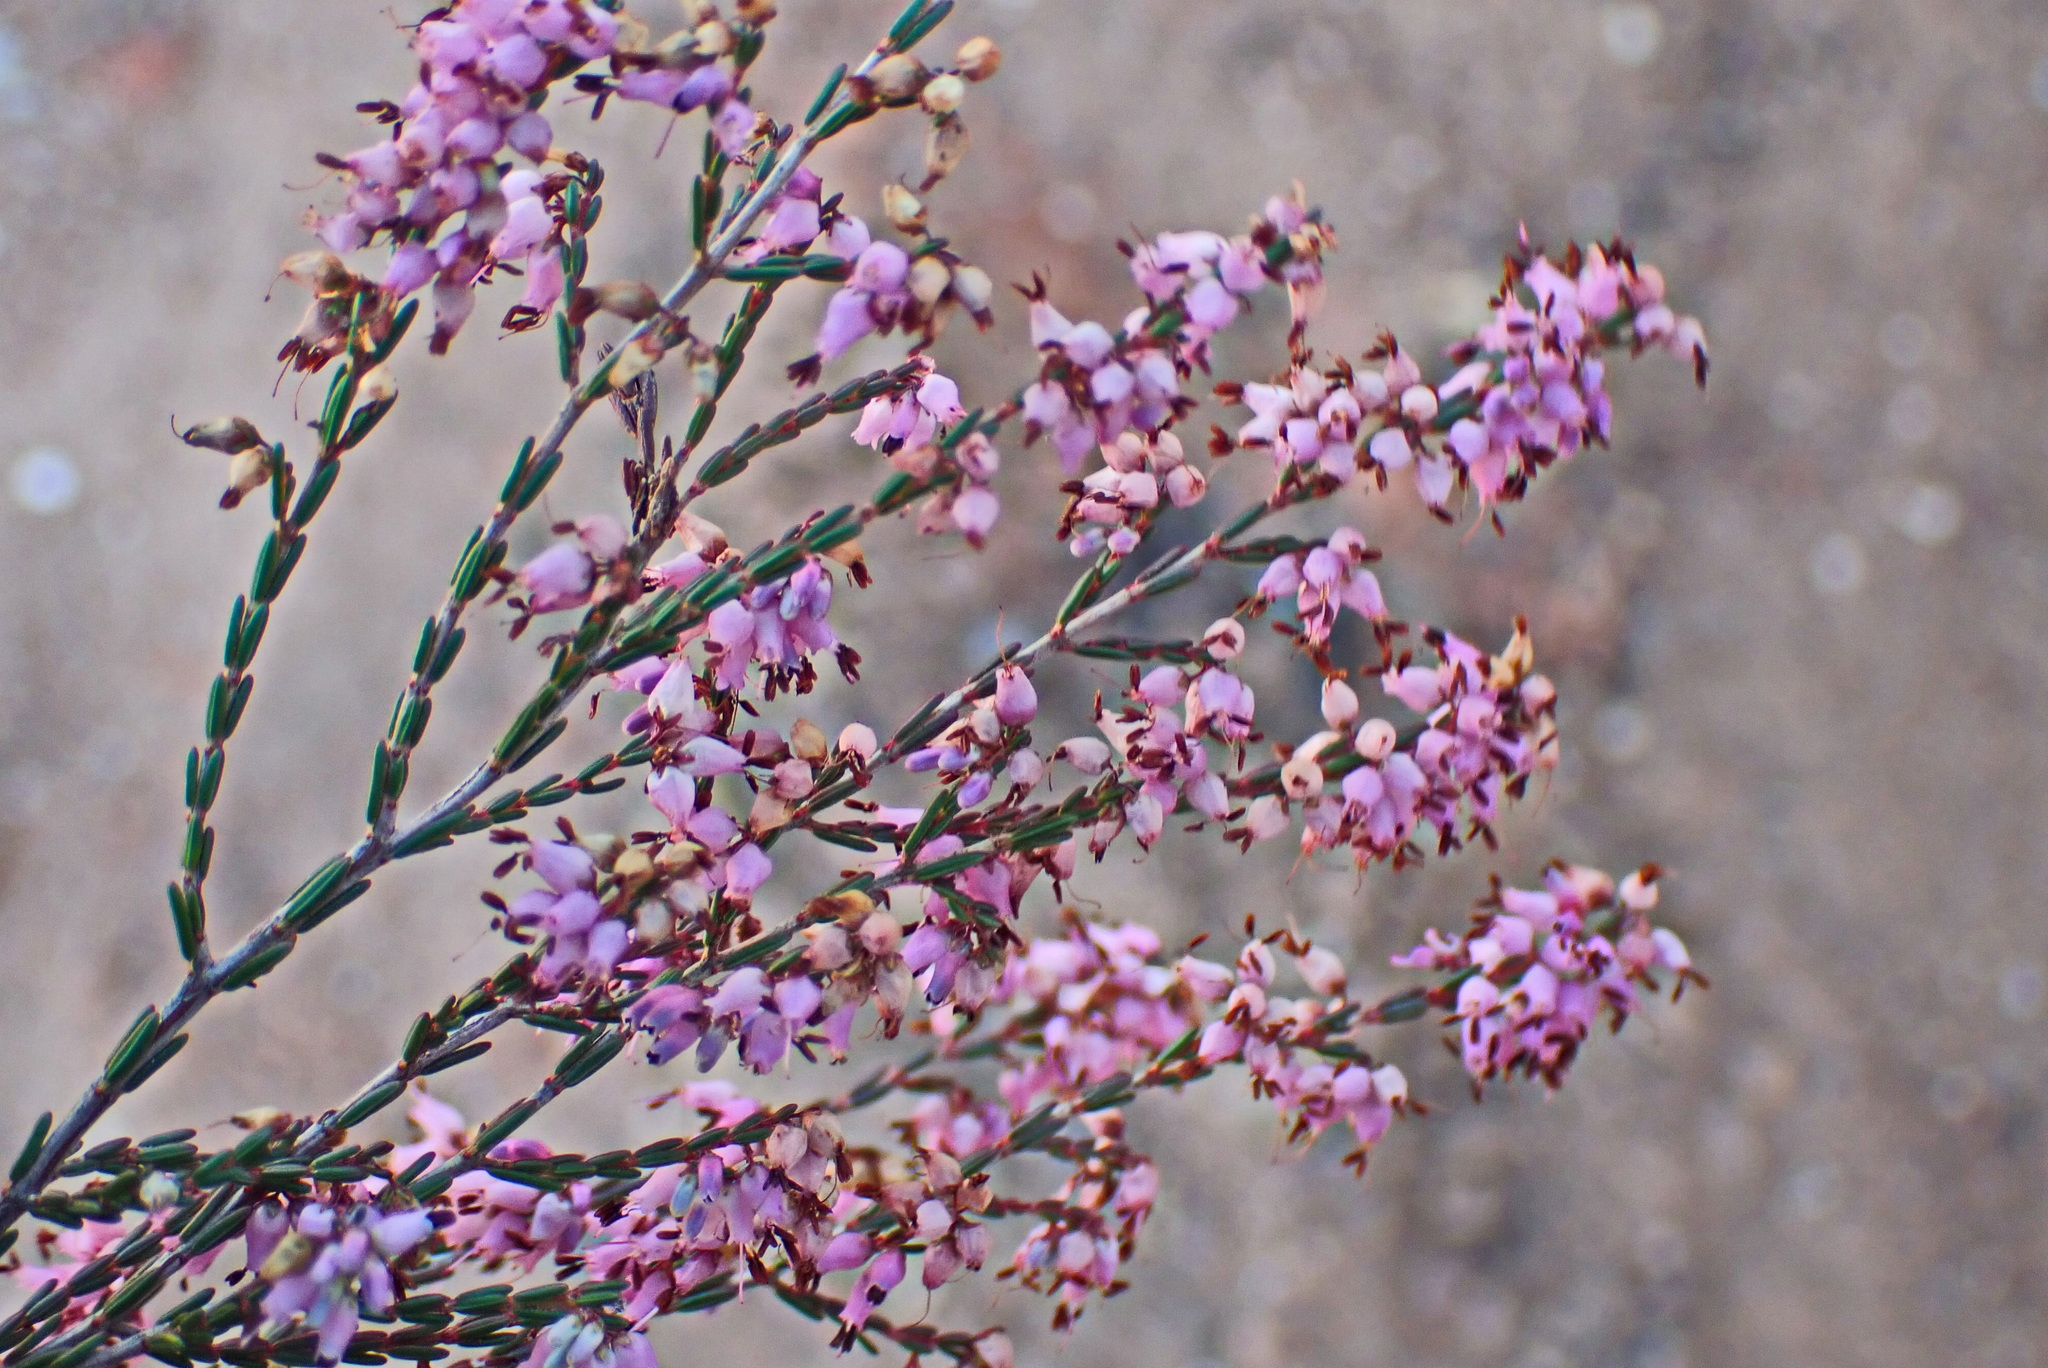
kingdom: Plantae
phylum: Tracheophyta
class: Magnoliopsida
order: Ericales
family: Ericaceae
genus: Erica
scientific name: Erica rosacea
